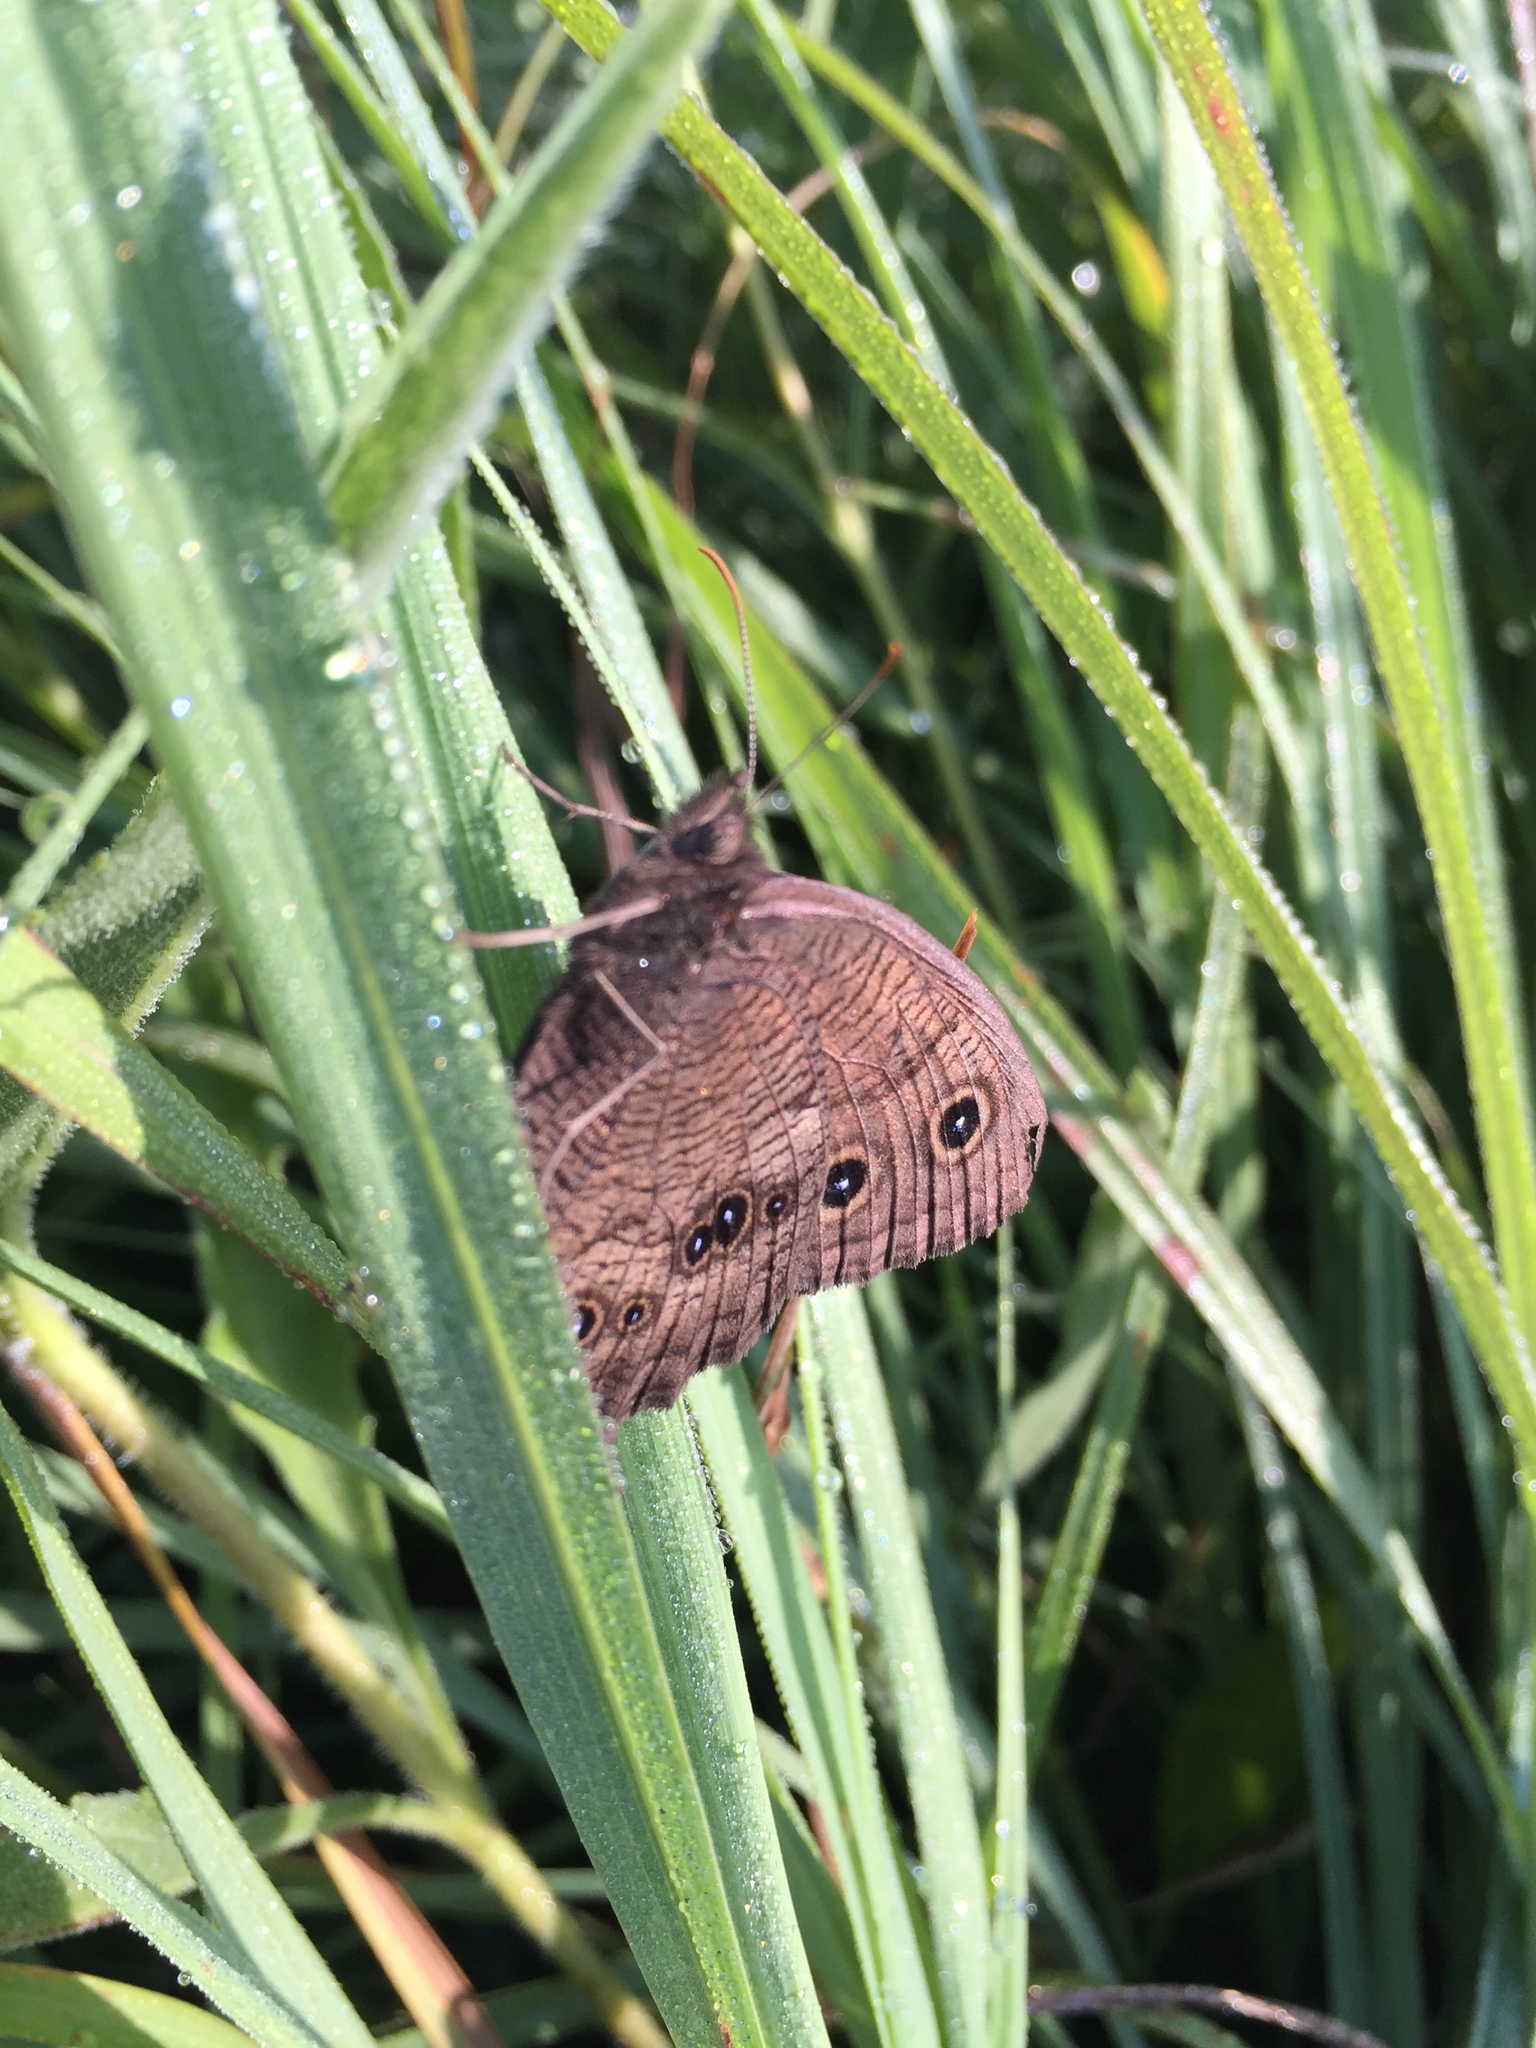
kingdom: Animalia
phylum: Arthropoda
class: Insecta
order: Lepidoptera
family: Nymphalidae
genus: Cercyonis
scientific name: Cercyonis pegala
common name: Common wood-nymph
